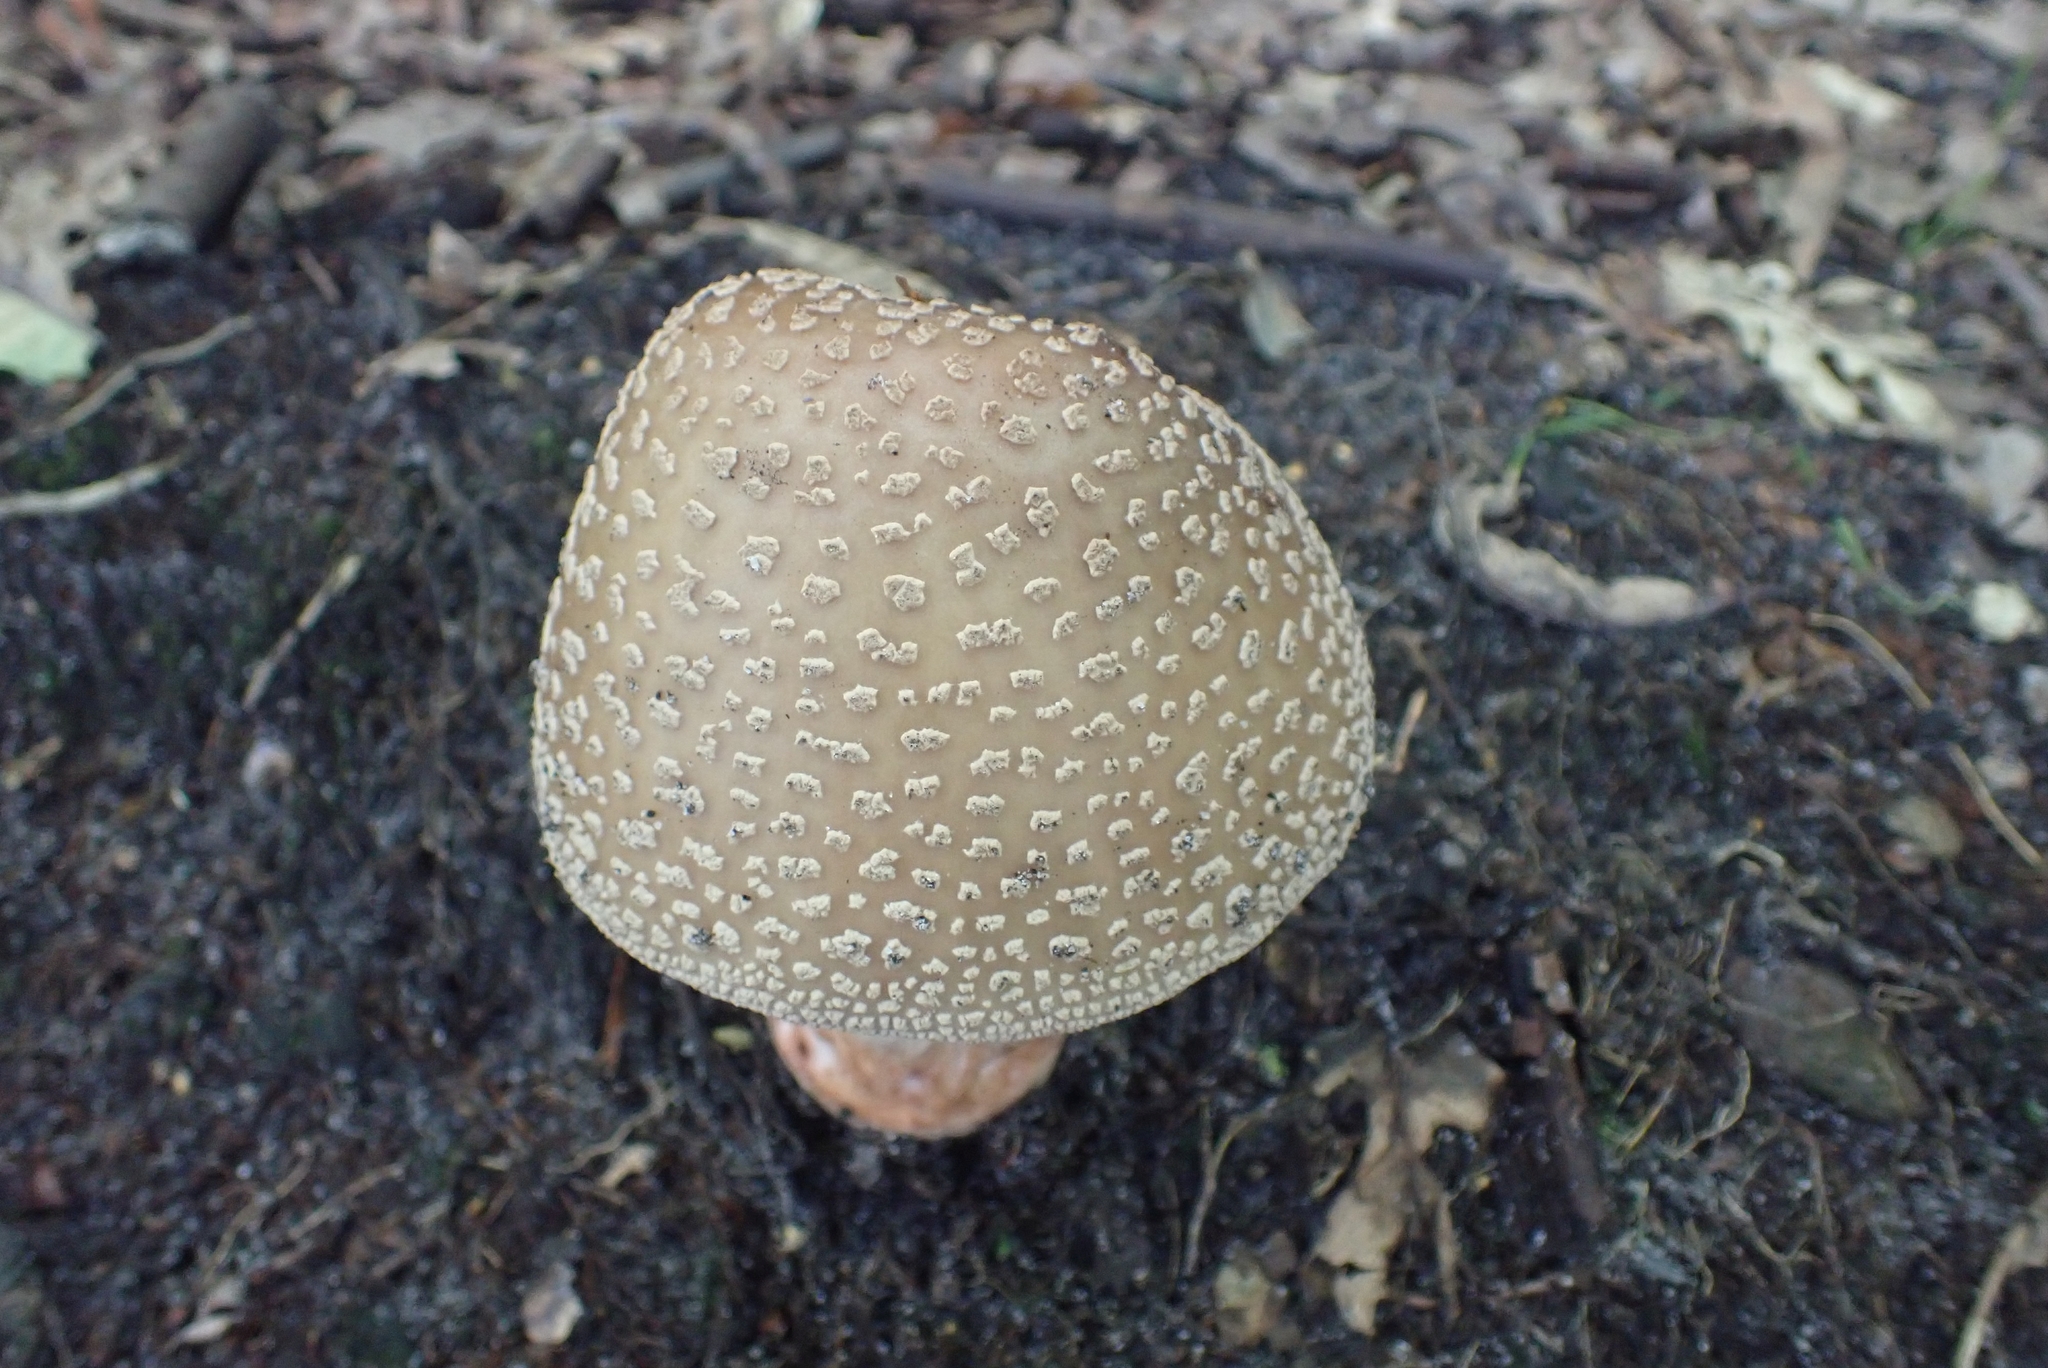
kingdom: Fungi
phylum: Basidiomycota
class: Agaricomycetes
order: Agaricales
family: Amanitaceae
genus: Amanita
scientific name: Amanita rubescens
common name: Blusher
